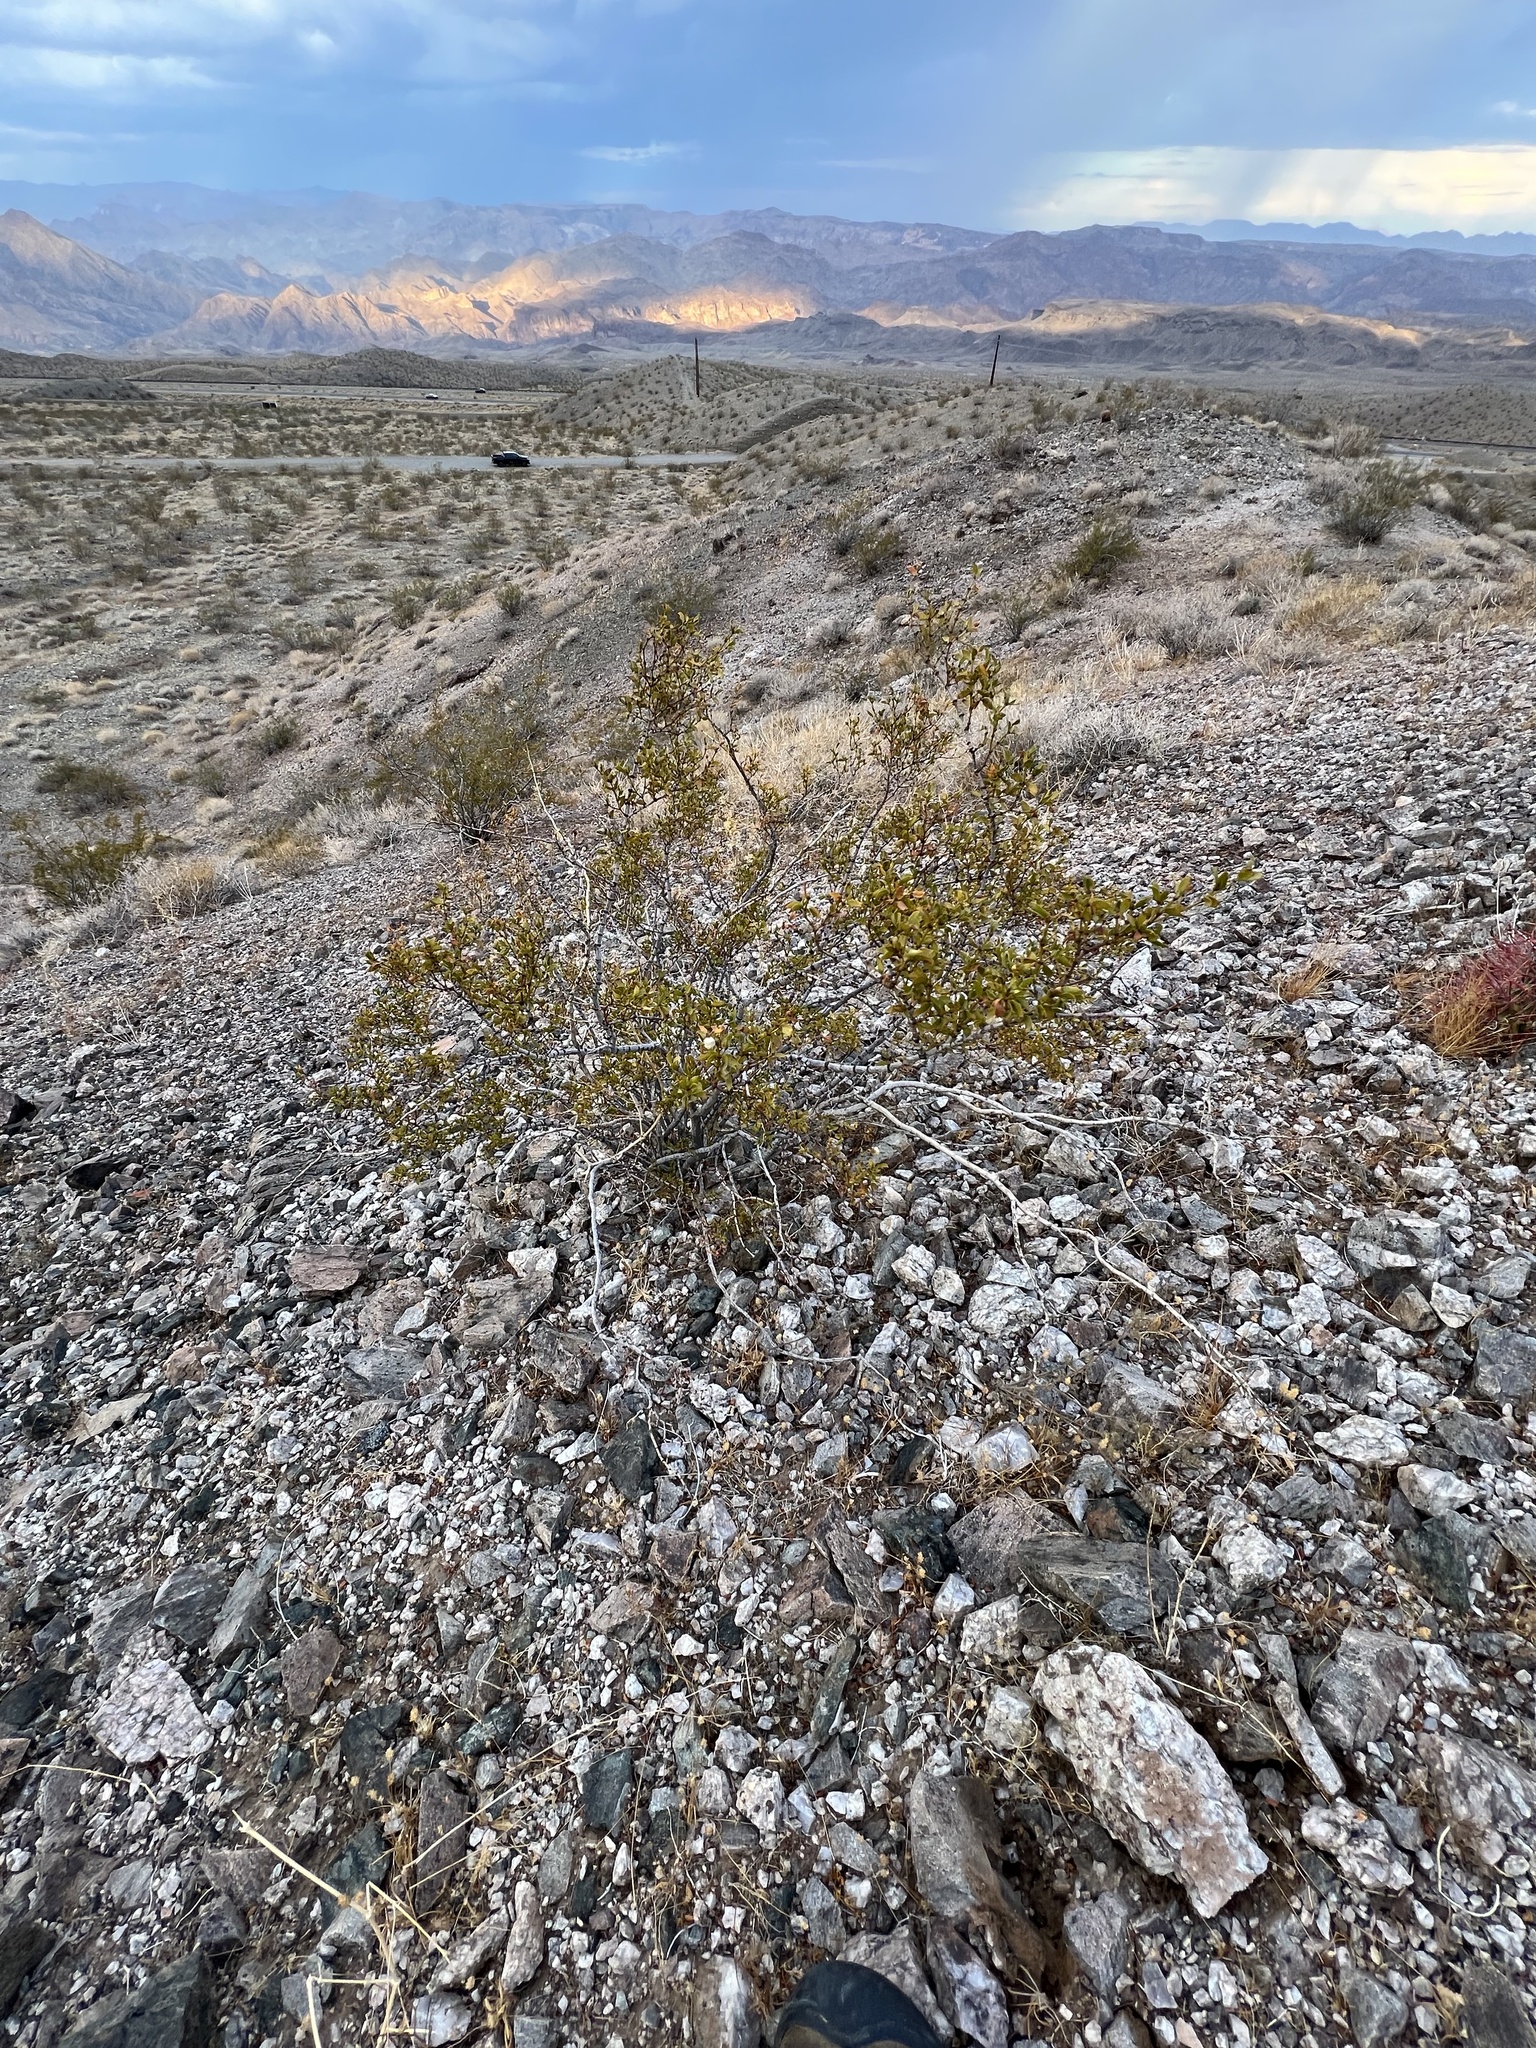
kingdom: Plantae
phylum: Tracheophyta
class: Magnoliopsida
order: Zygophyllales
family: Zygophyllaceae
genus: Larrea
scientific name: Larrea tridentata
